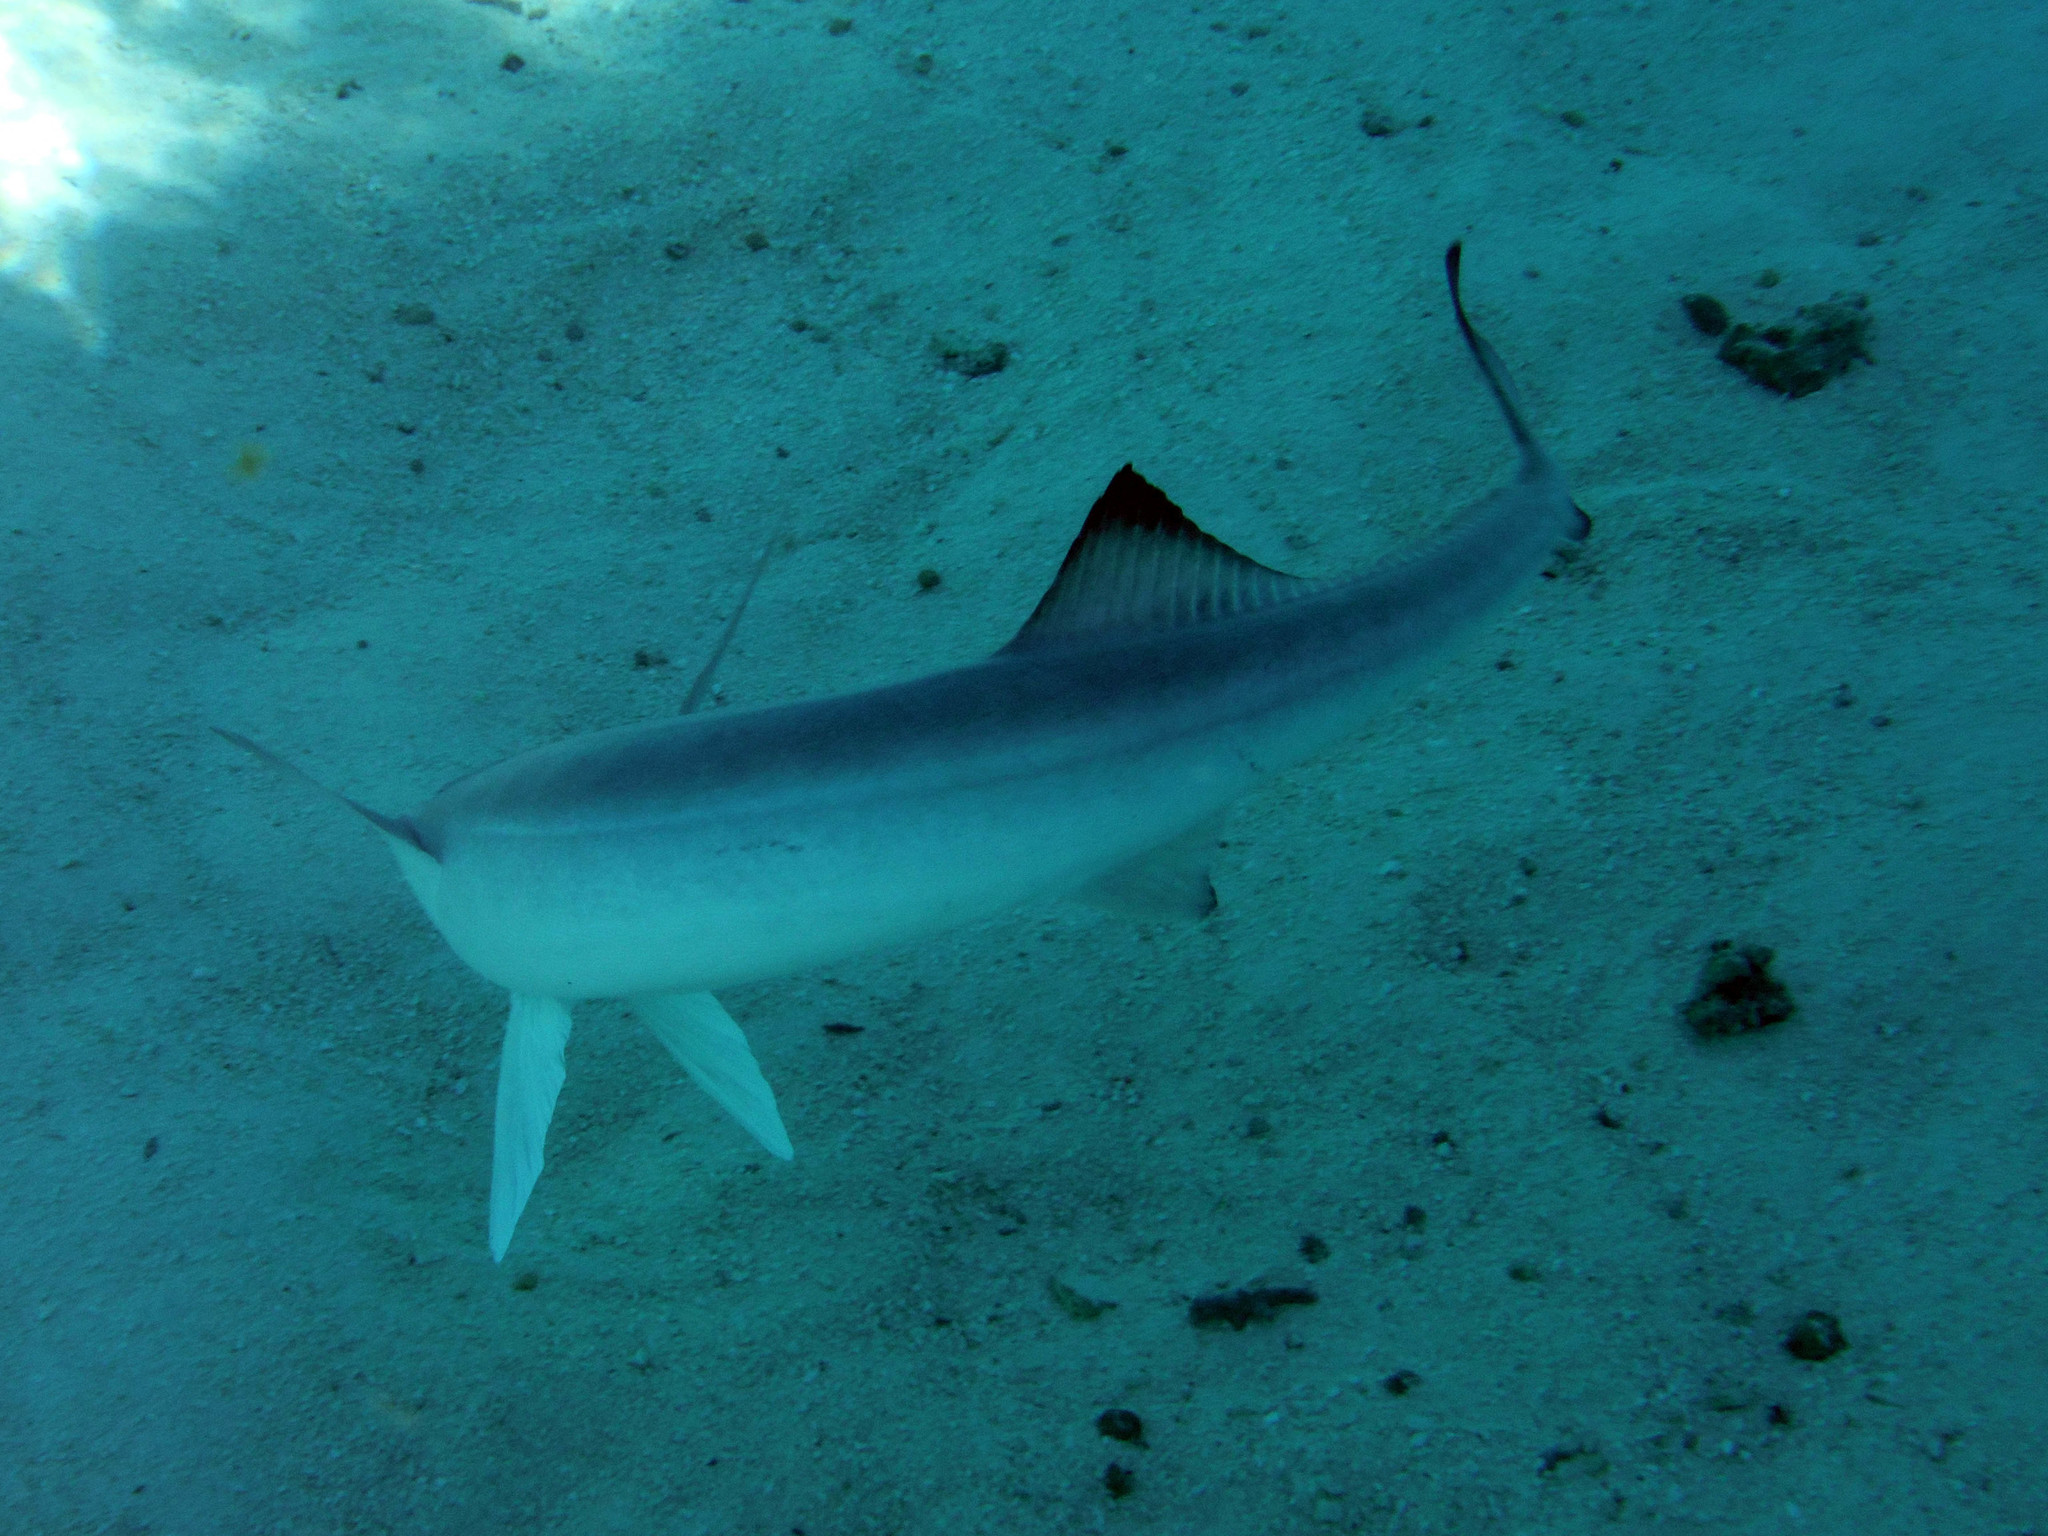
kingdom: Animalia
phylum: Chordata
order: Perciformes
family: Echeneidae
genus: Echeneis
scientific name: Echeneis naucrates
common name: Sharksucker
